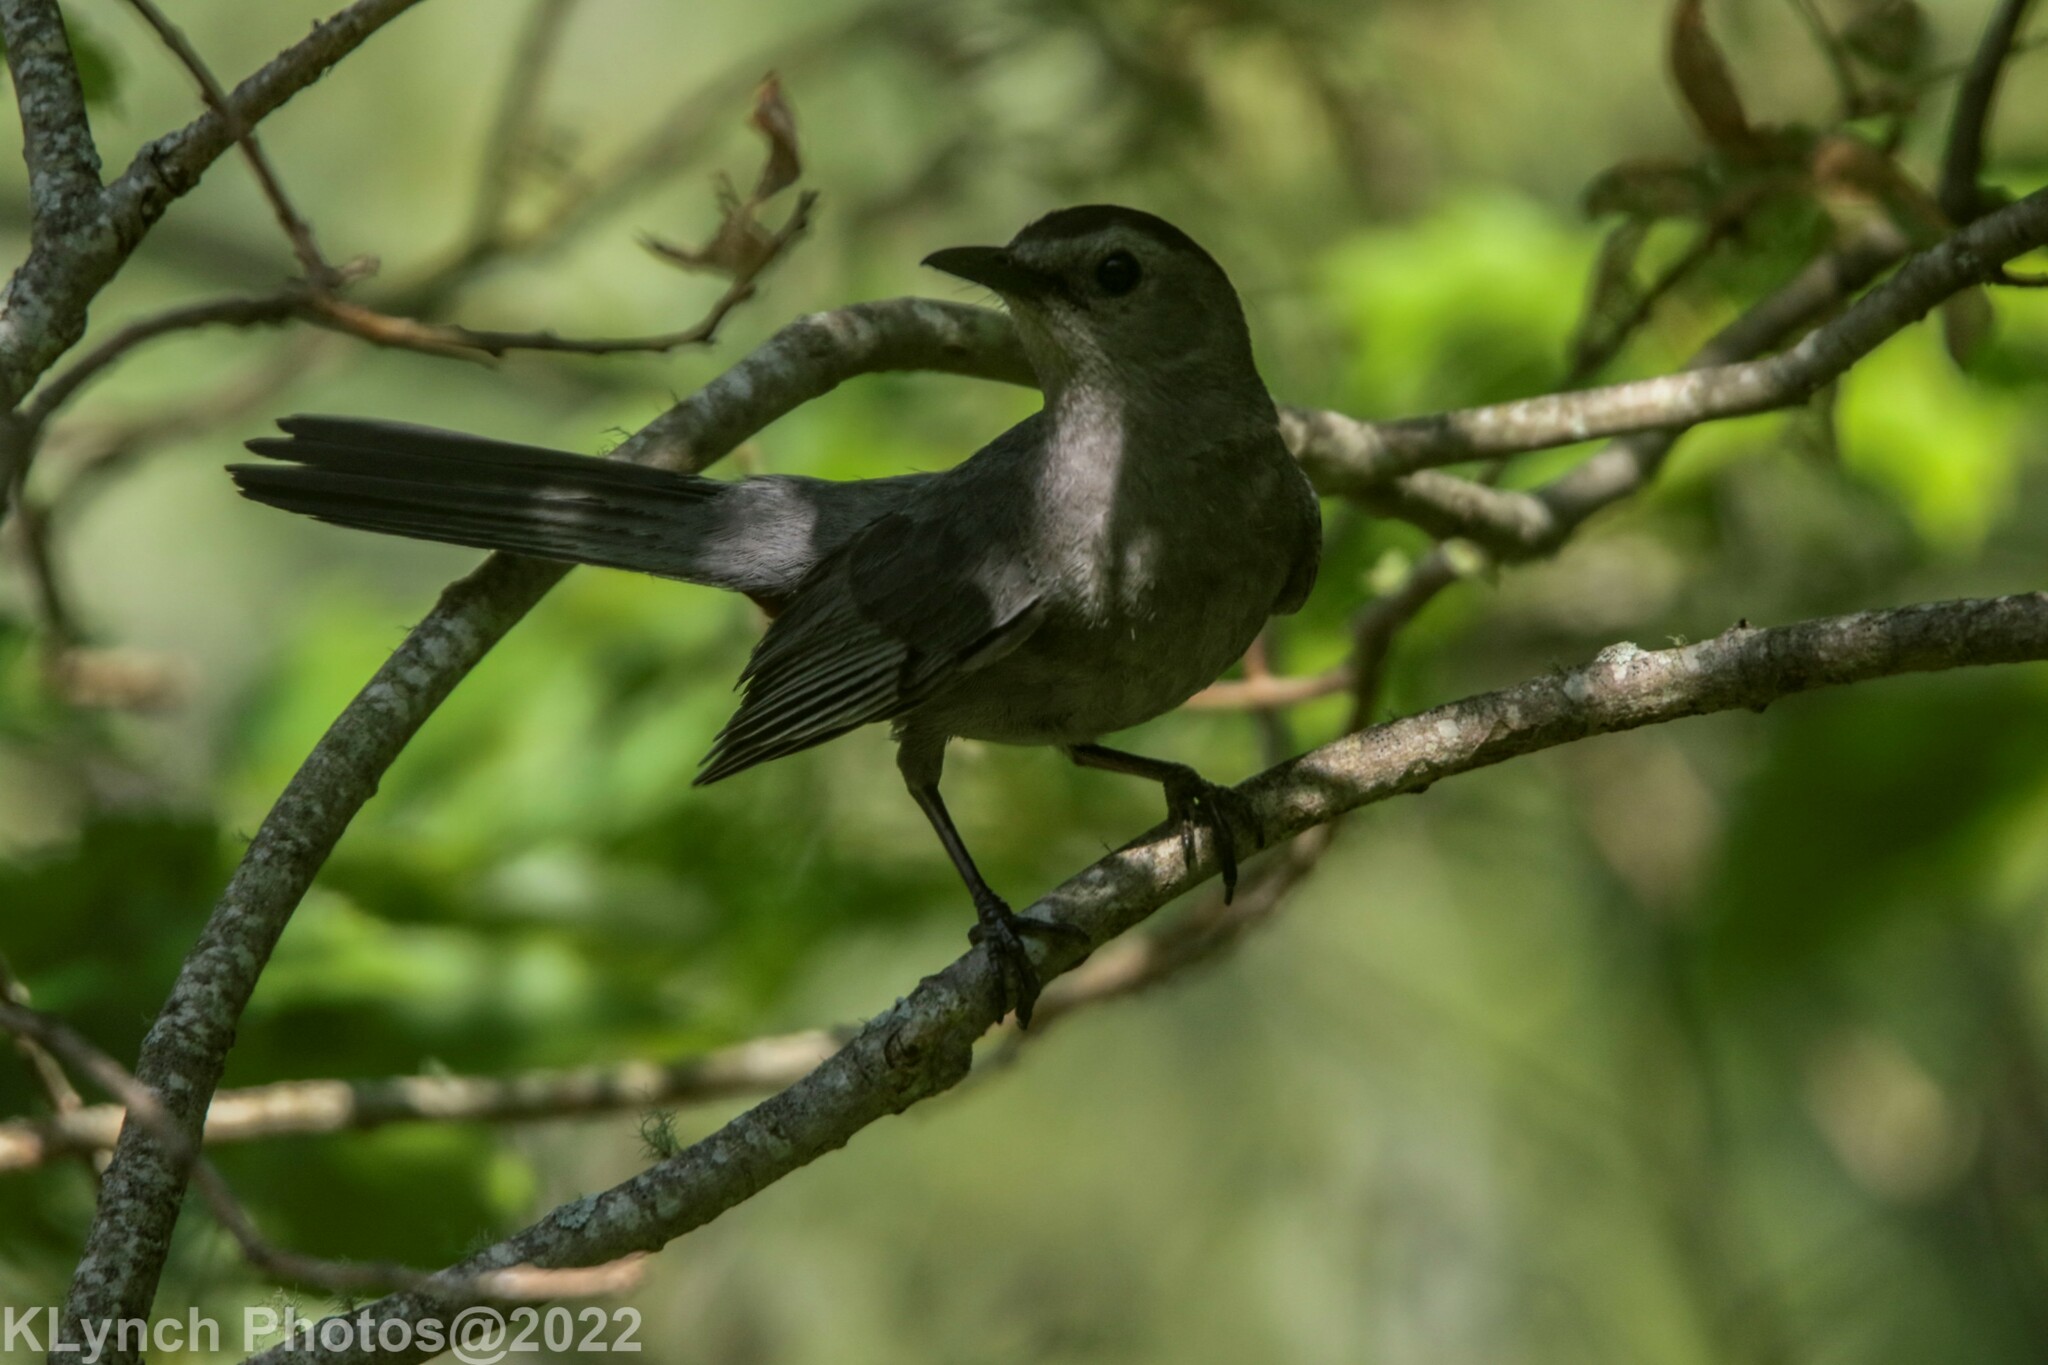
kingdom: Animalia
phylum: Chordata
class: Aves
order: Passeriformes
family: Mimidae
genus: Dumetella
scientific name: Dumetella carolinensis
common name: Gray catbird
